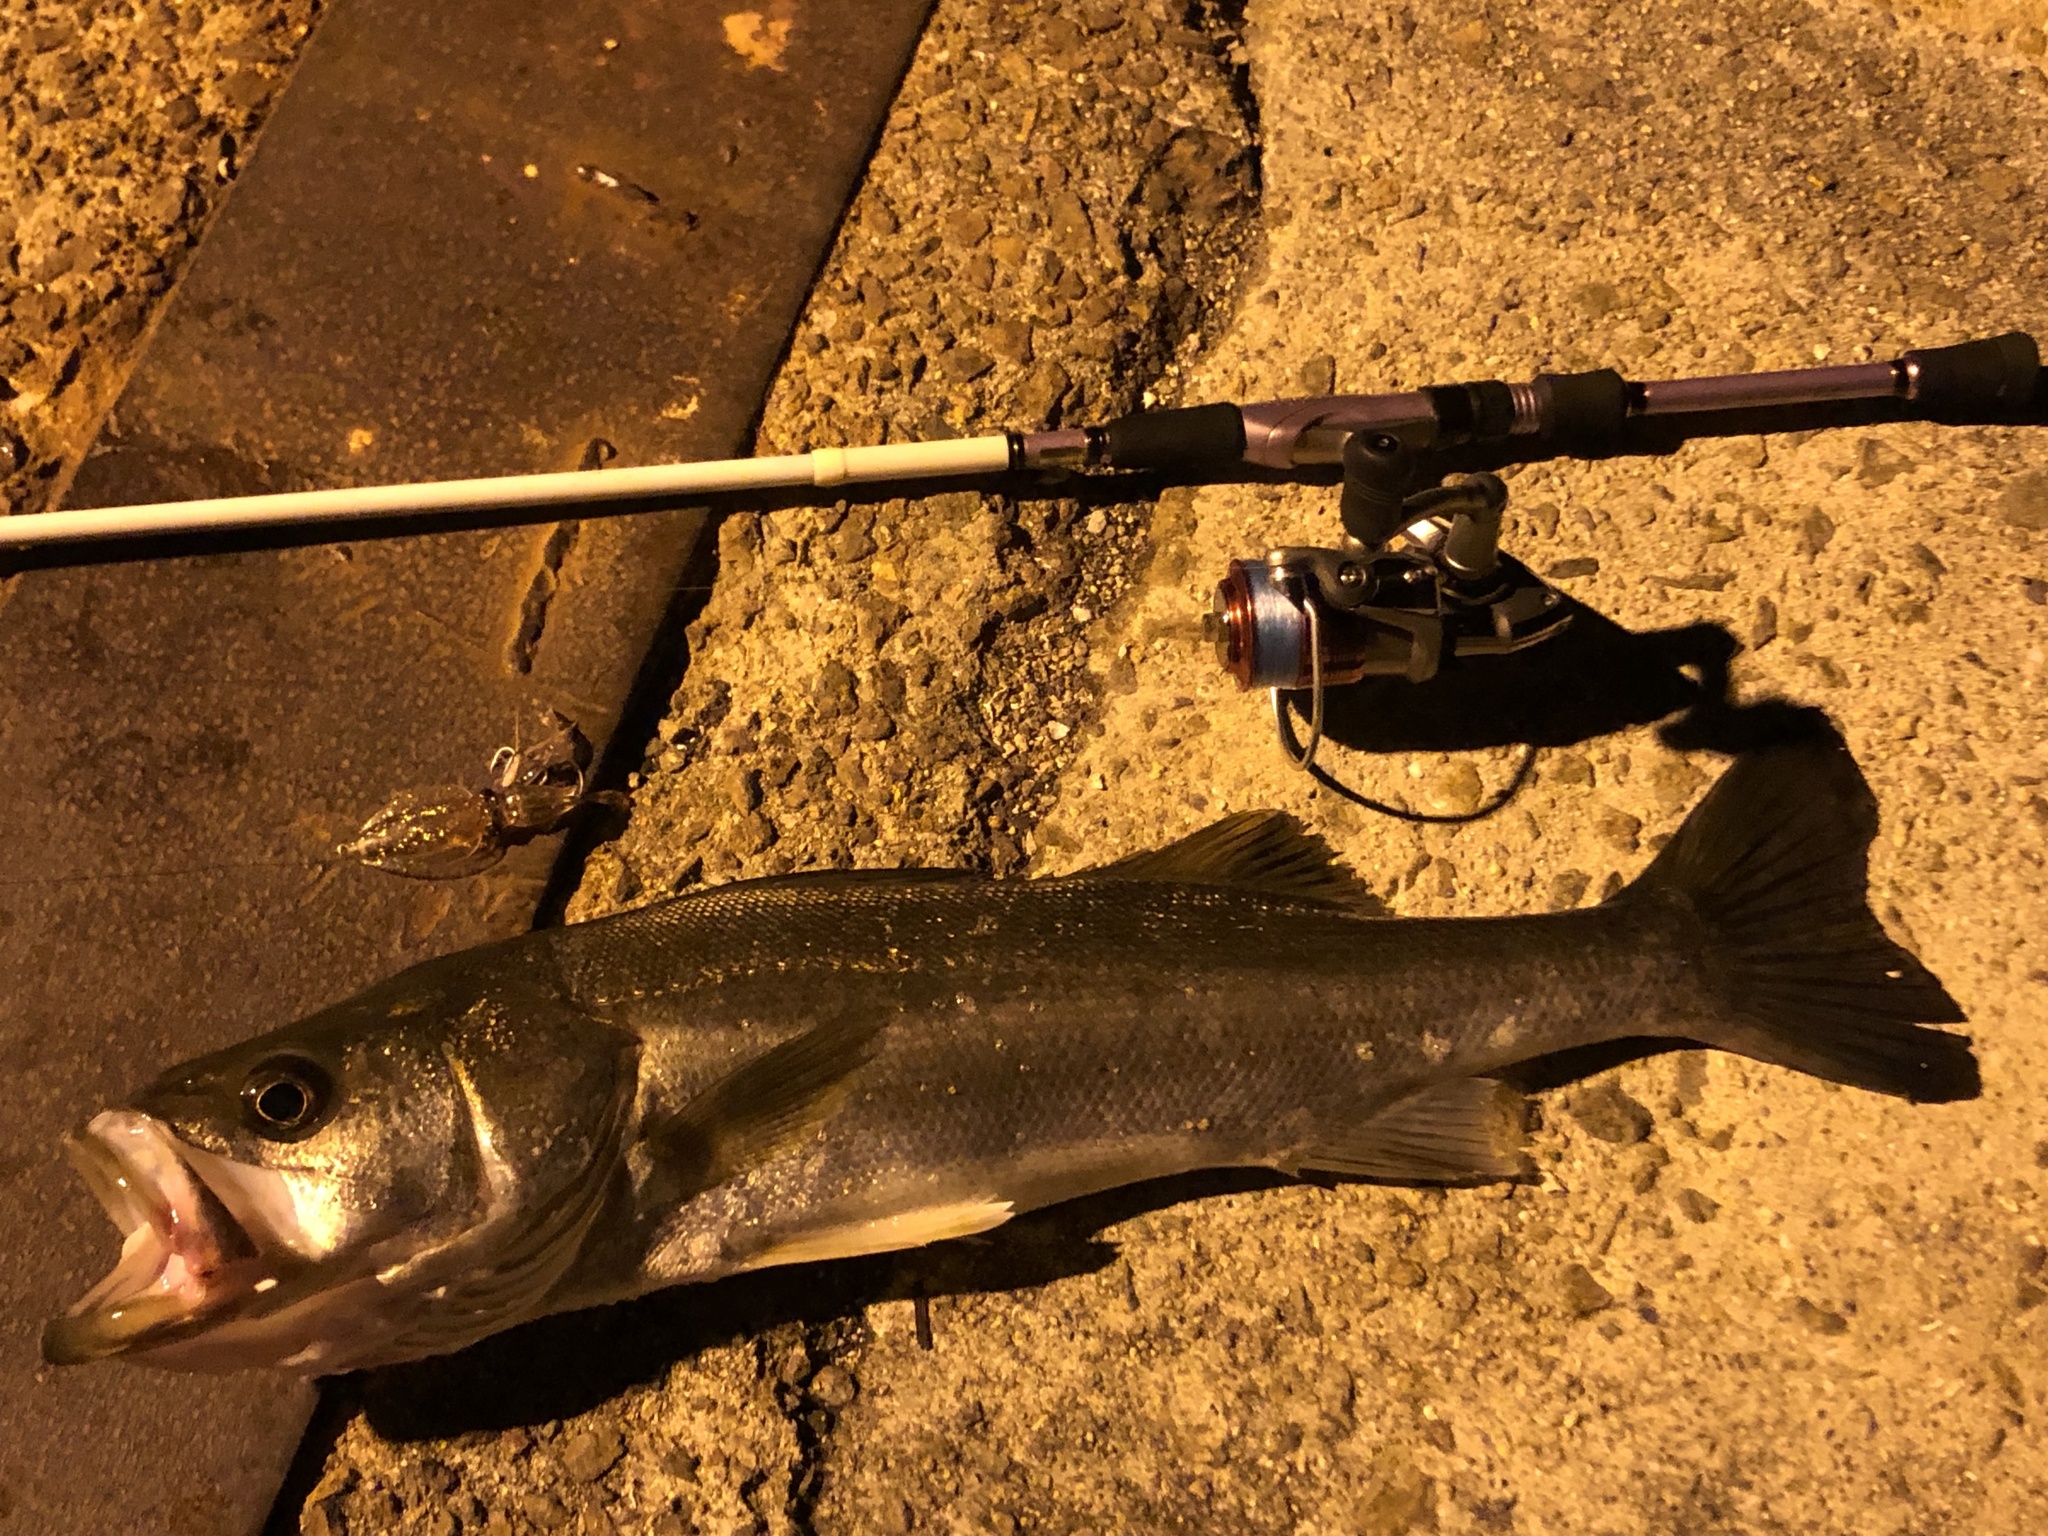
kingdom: Animalia
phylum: Chordata
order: Perciformes
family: Lateolabracidae
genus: Lateolabrax
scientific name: Lateolabrax japonicus
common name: Japan sea bass
